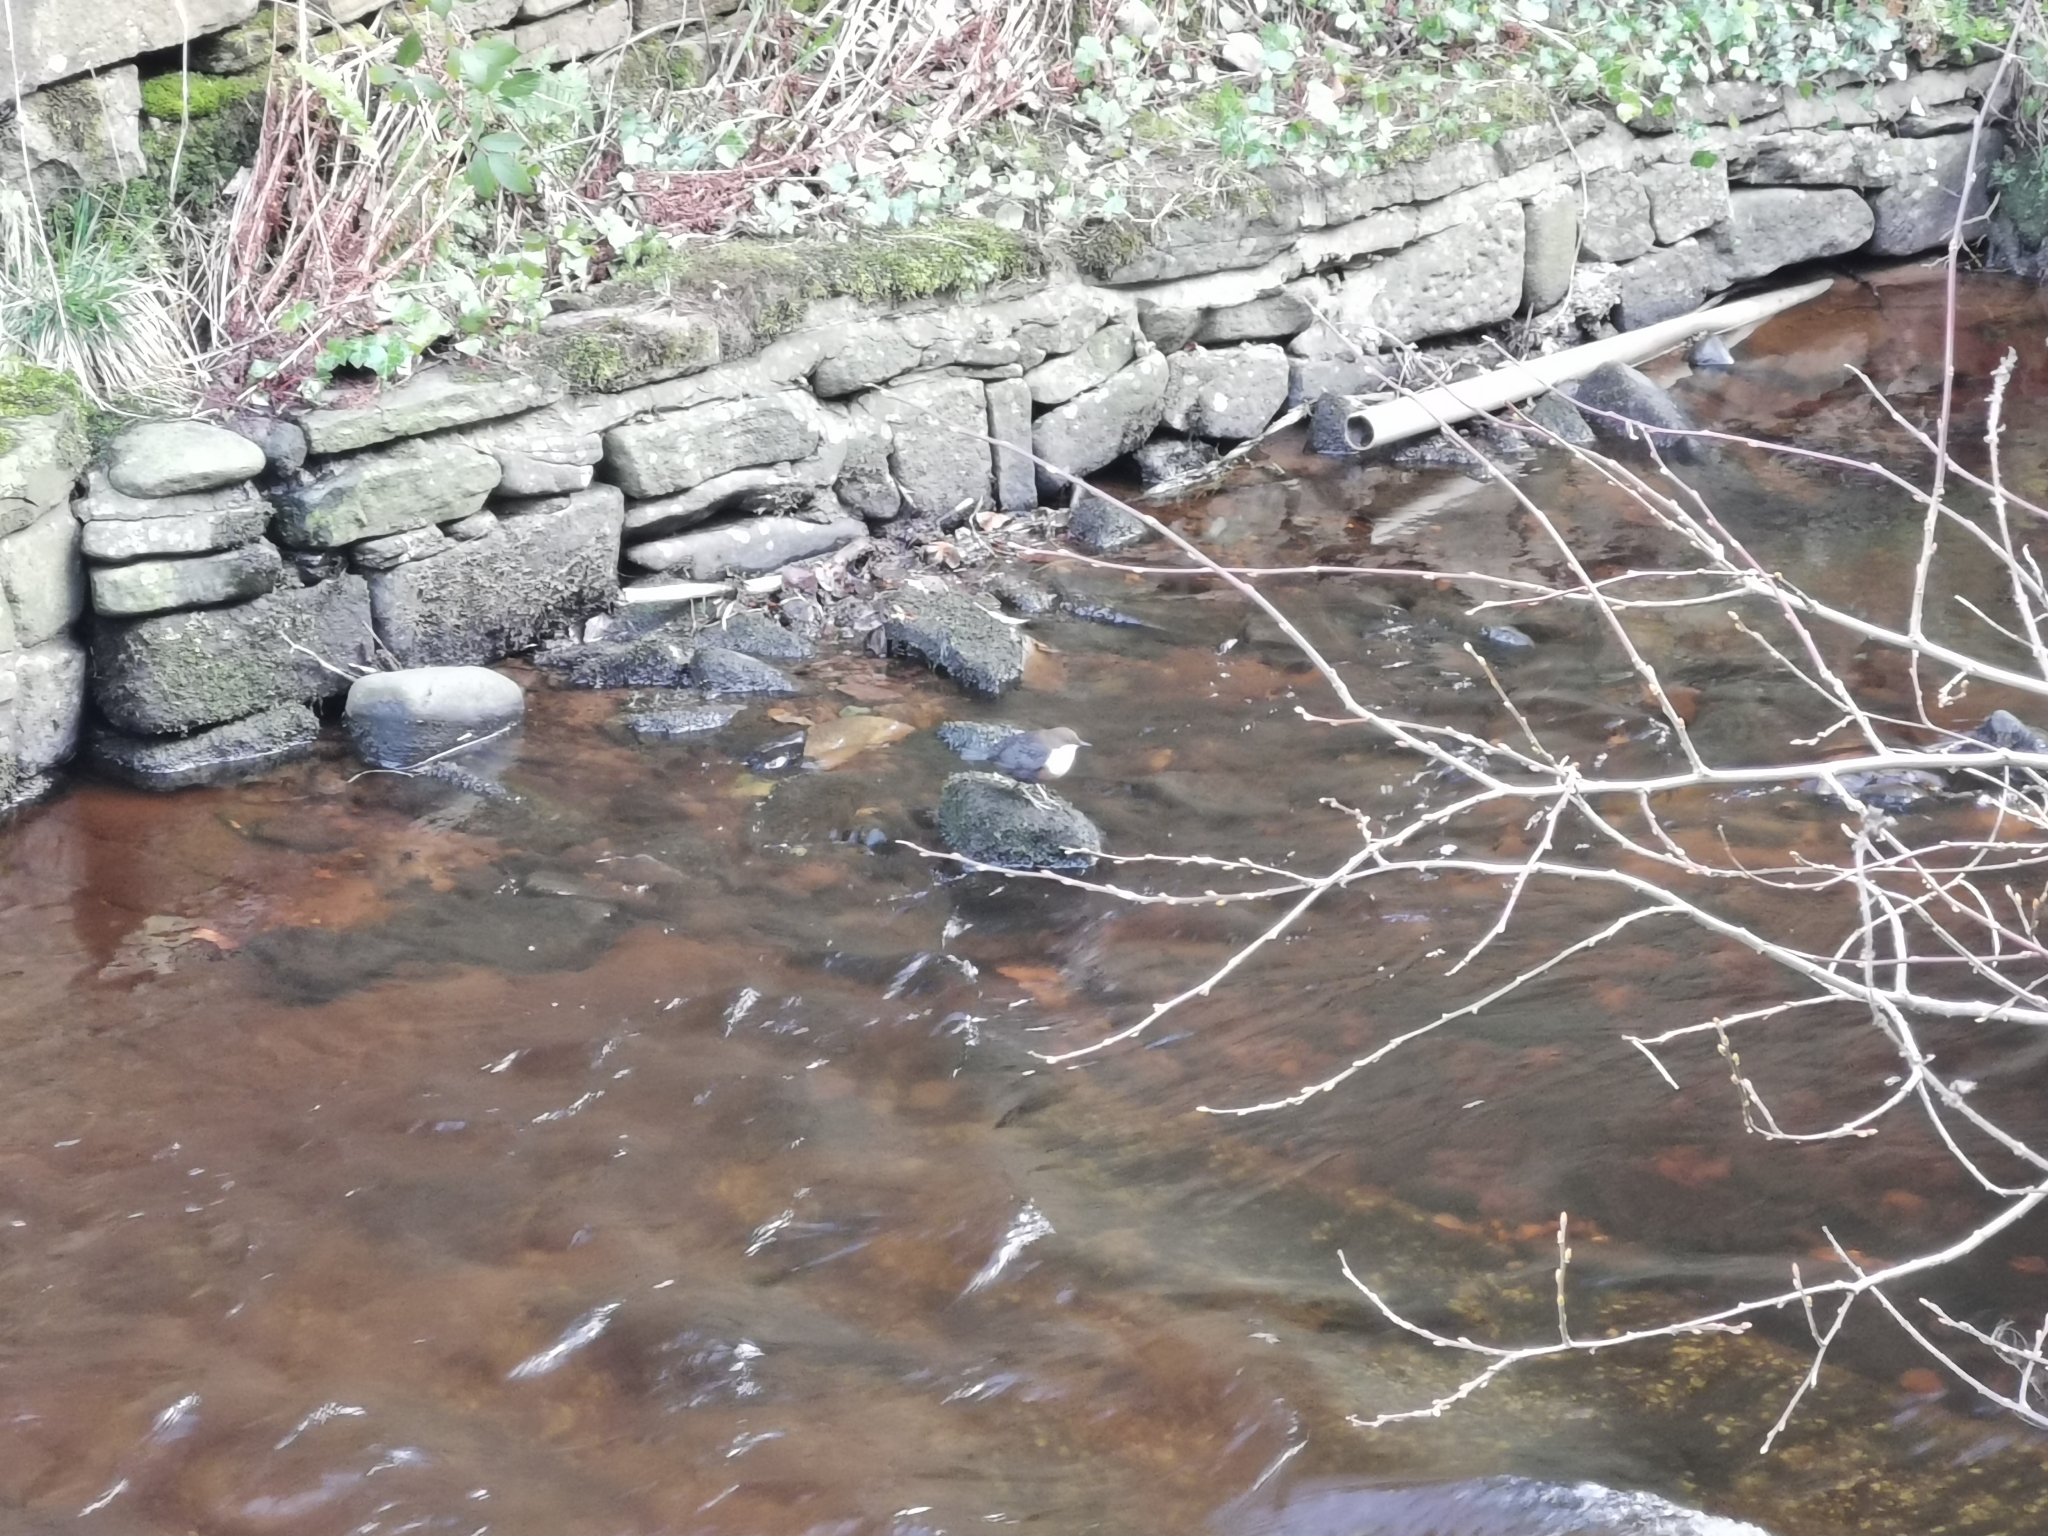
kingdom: Animalia
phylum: Chordata
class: Aves
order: Passeriformes
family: Cinclidae
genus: Cinclus
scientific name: Cinclus cinclus
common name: White-throated dipper
